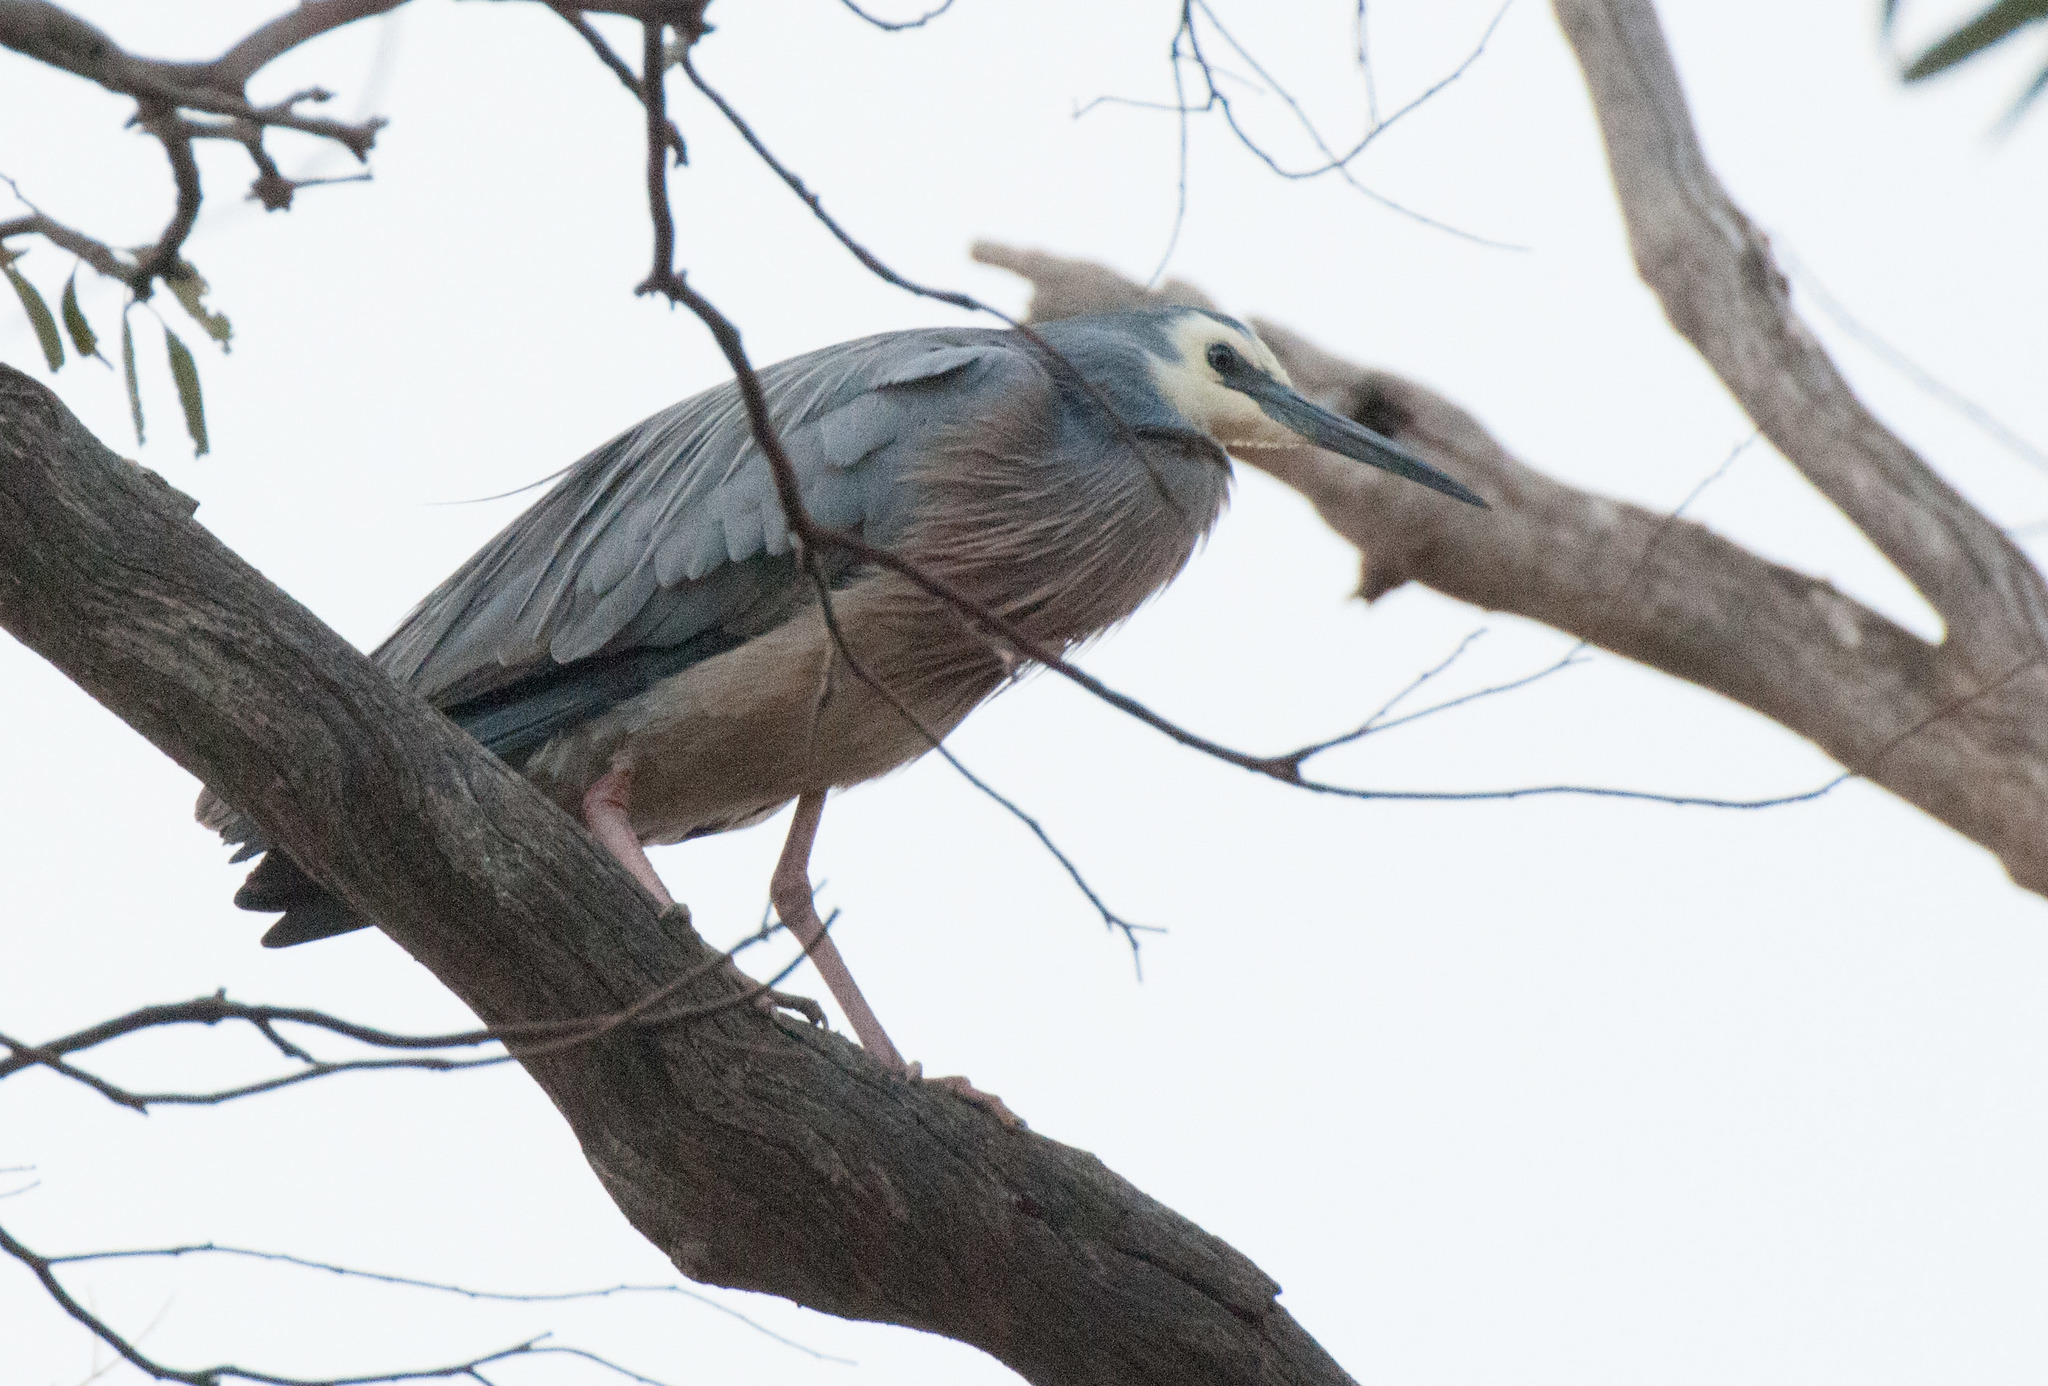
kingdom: Animalia
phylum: Chordata
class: Aves
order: Pelecaniformes
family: Ardeidae
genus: Egretta
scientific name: Egretta novaehollandiae
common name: White-faced heron
